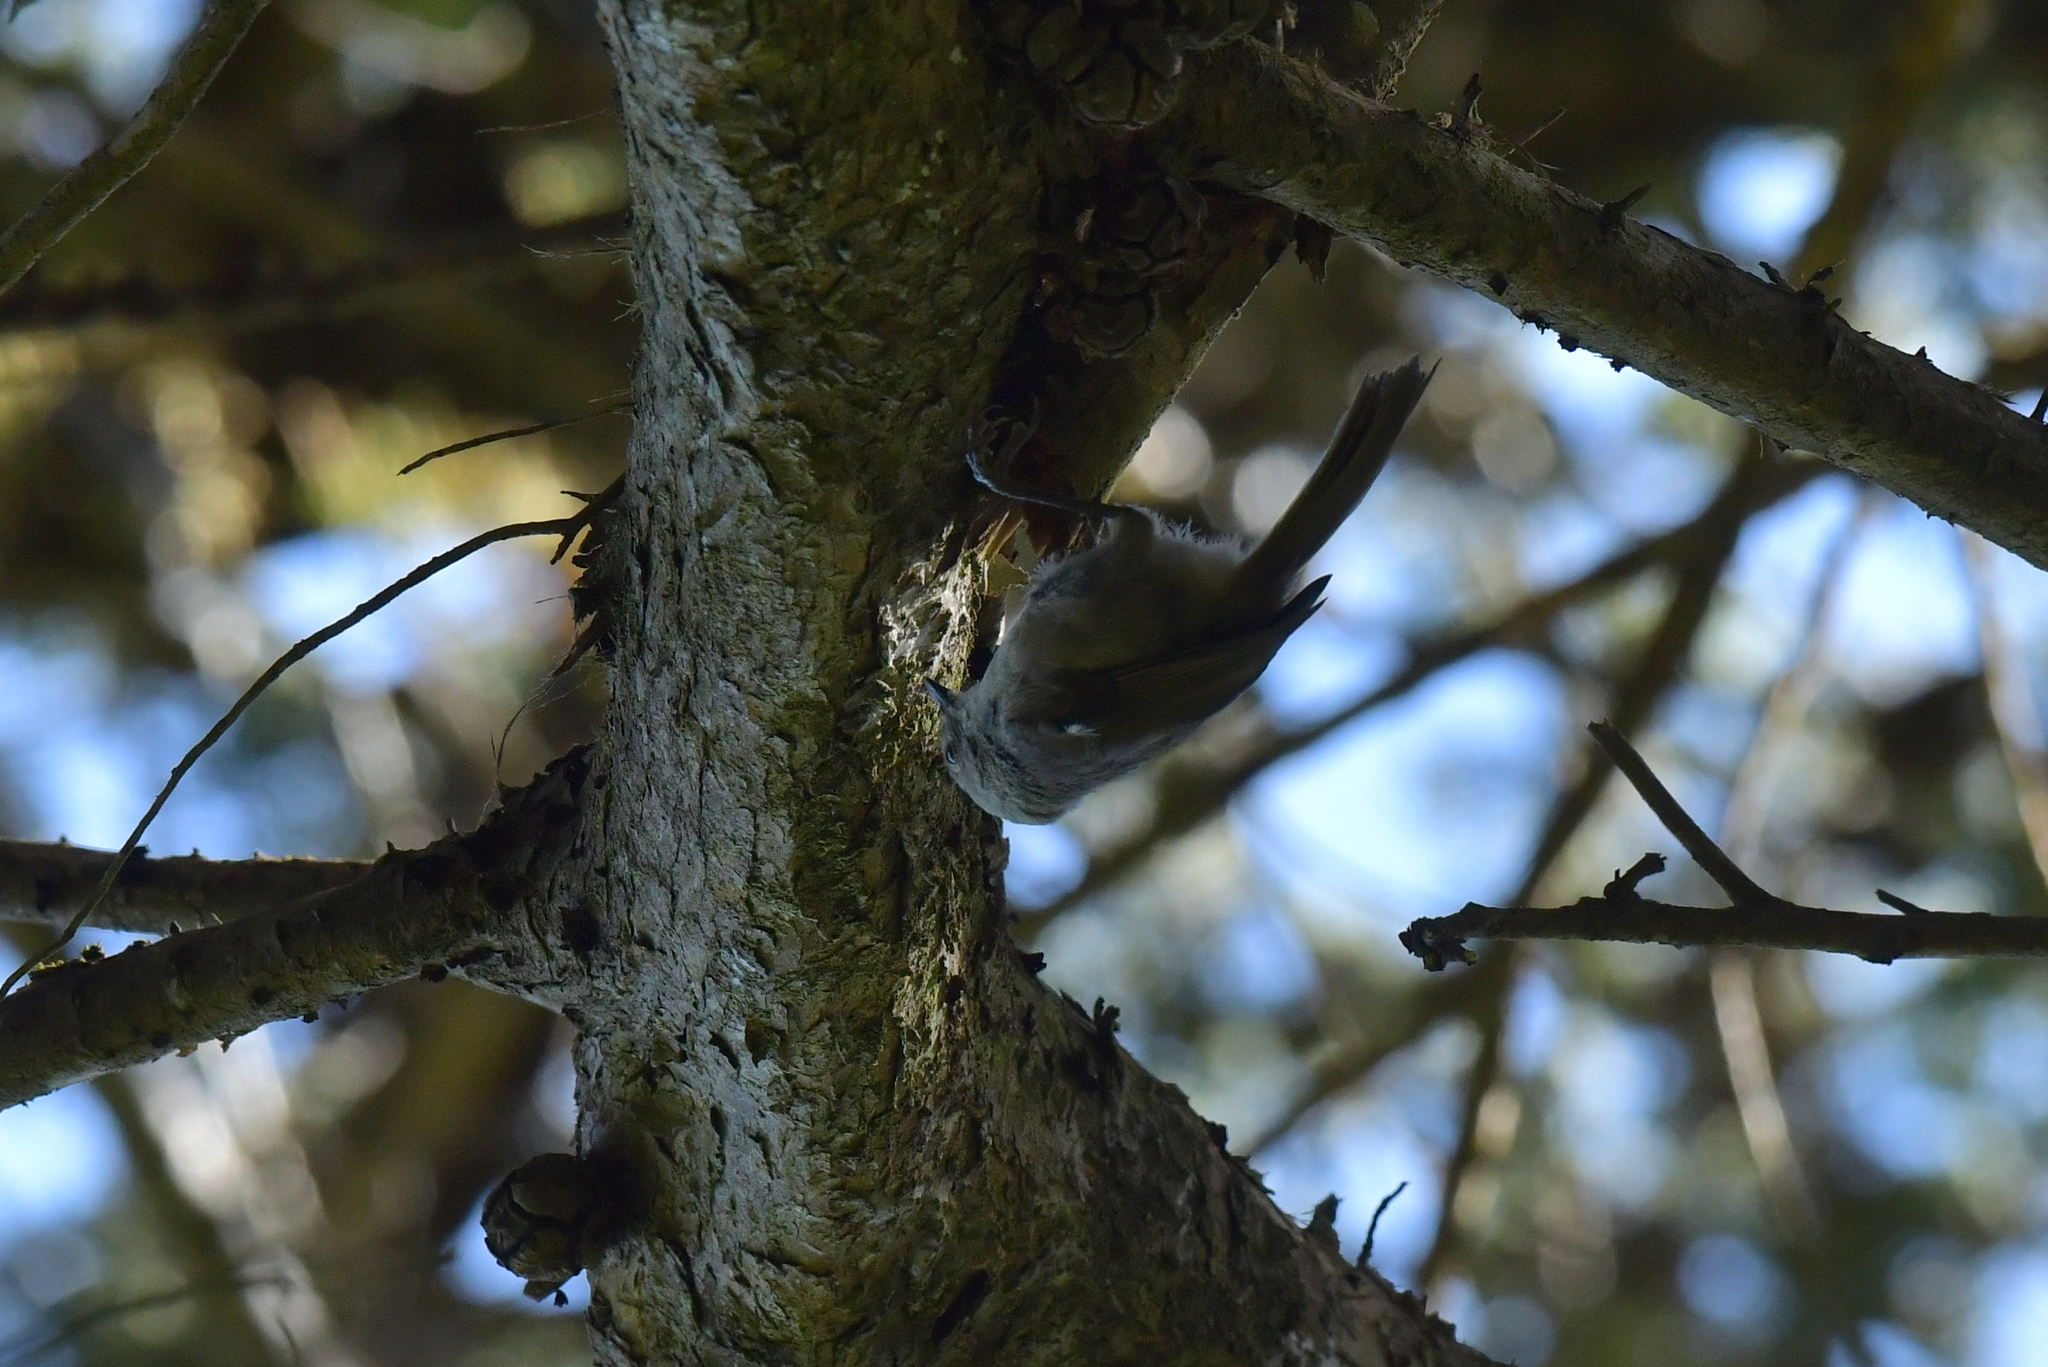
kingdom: Animalia
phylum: Chordata
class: Aves
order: Passeriformes
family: Acanthizidae
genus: Mohoua
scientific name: Mohoua albicilla
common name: Whitehead
